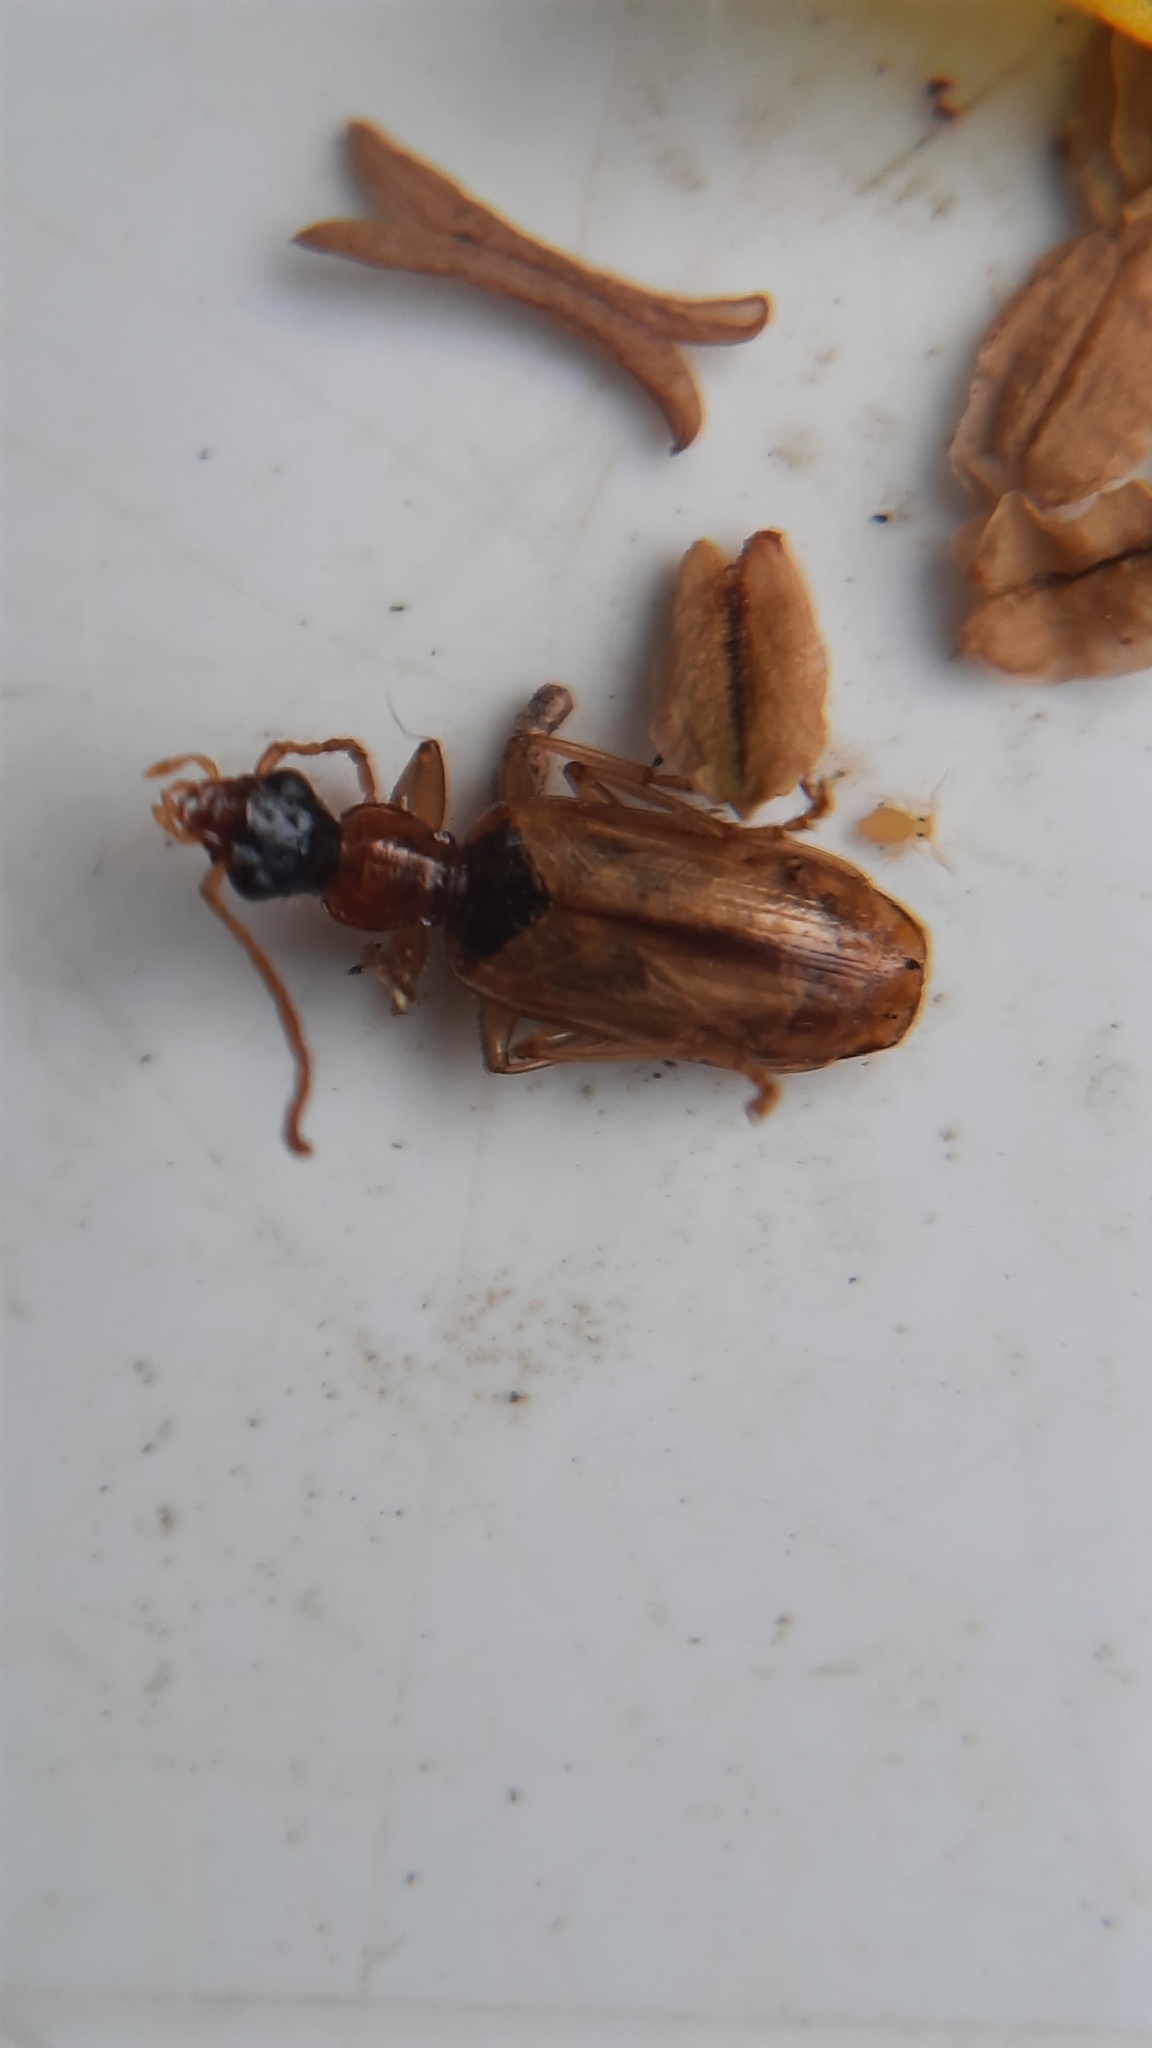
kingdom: Animalia
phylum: Arthropoda
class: Insecta
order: Coleoptera
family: Carabidae
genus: Demetrias
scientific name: Demetrias atricapillus
